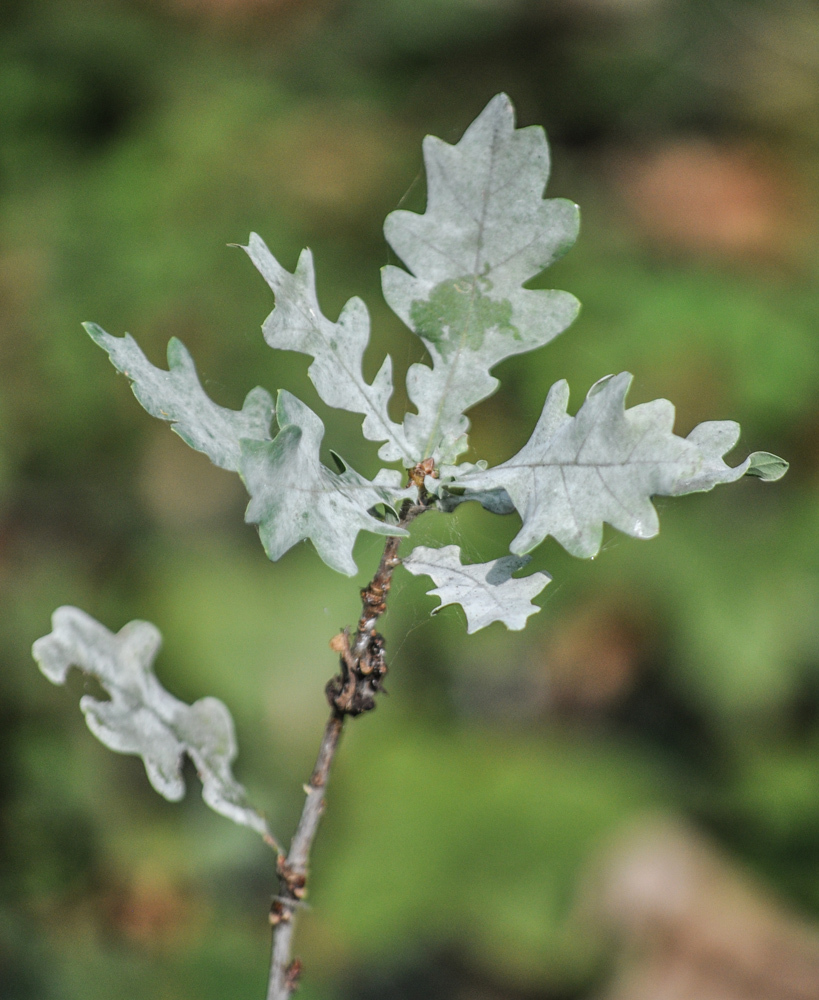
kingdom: Plantae
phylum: Tracheophyta
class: Magnoliopsida
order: Fagales
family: Fagaceae
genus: Quercus
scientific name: Quercus robur
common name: Pedunculate oak
